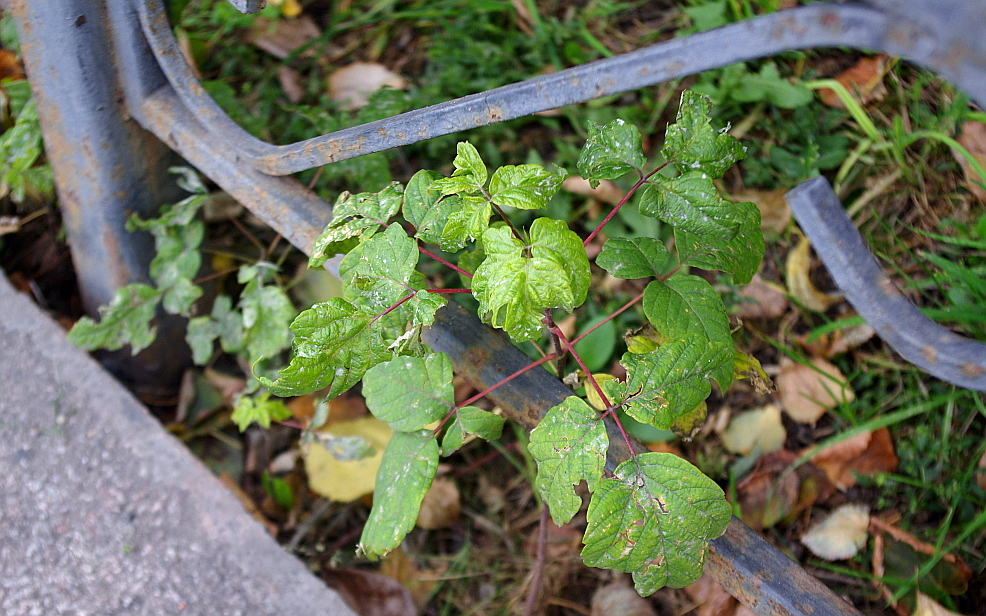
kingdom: Plantae
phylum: Tracheophyta
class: Magnoliopsida
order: Sapindales
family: Sapindaceae
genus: Acer
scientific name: Acer negundo
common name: Ashleaf maple
